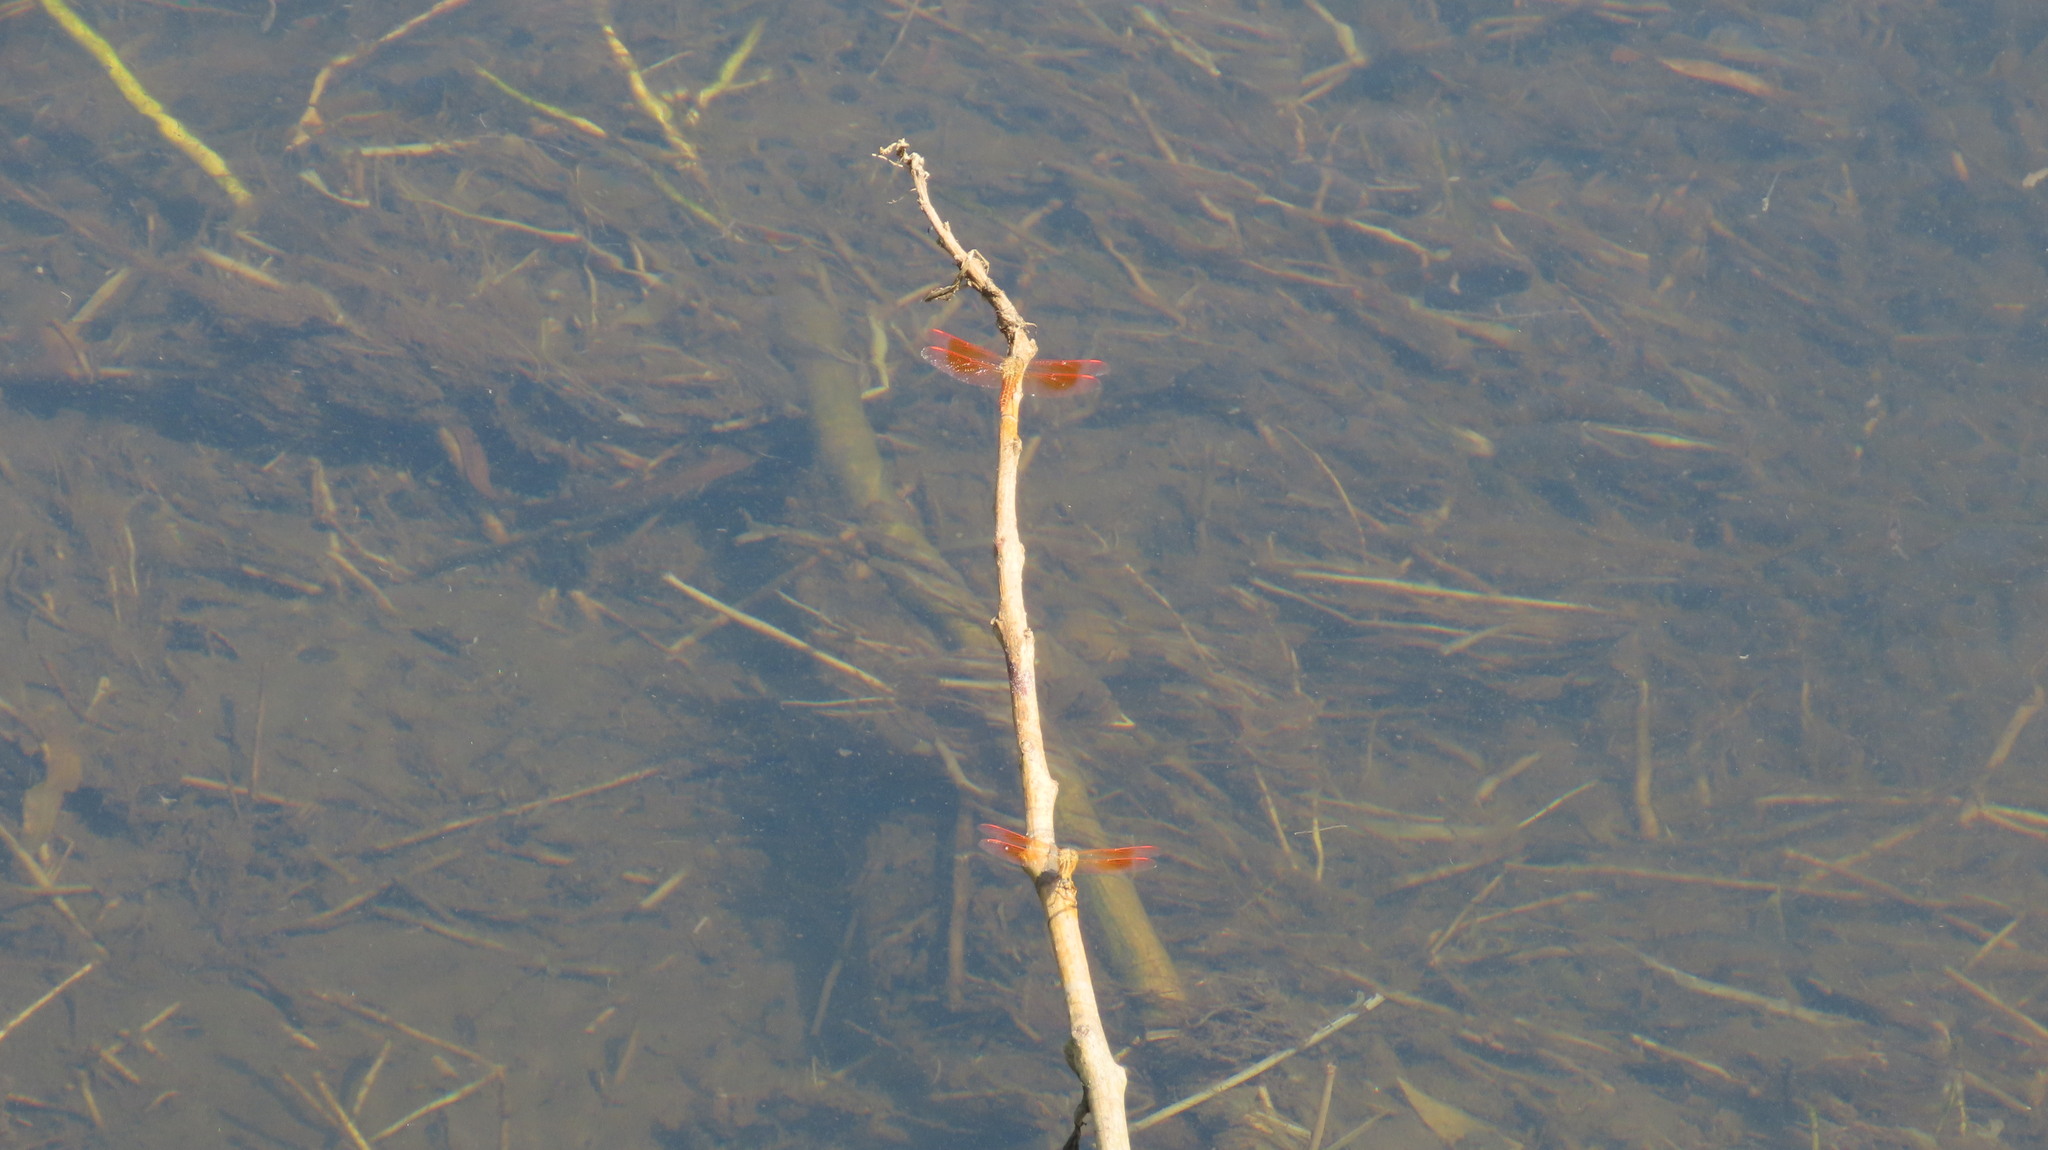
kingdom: Animalia
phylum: Arthropoda
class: Insecta
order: Odonata
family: Libellulidae
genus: Brachythemis
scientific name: Brachythemis contaminata
